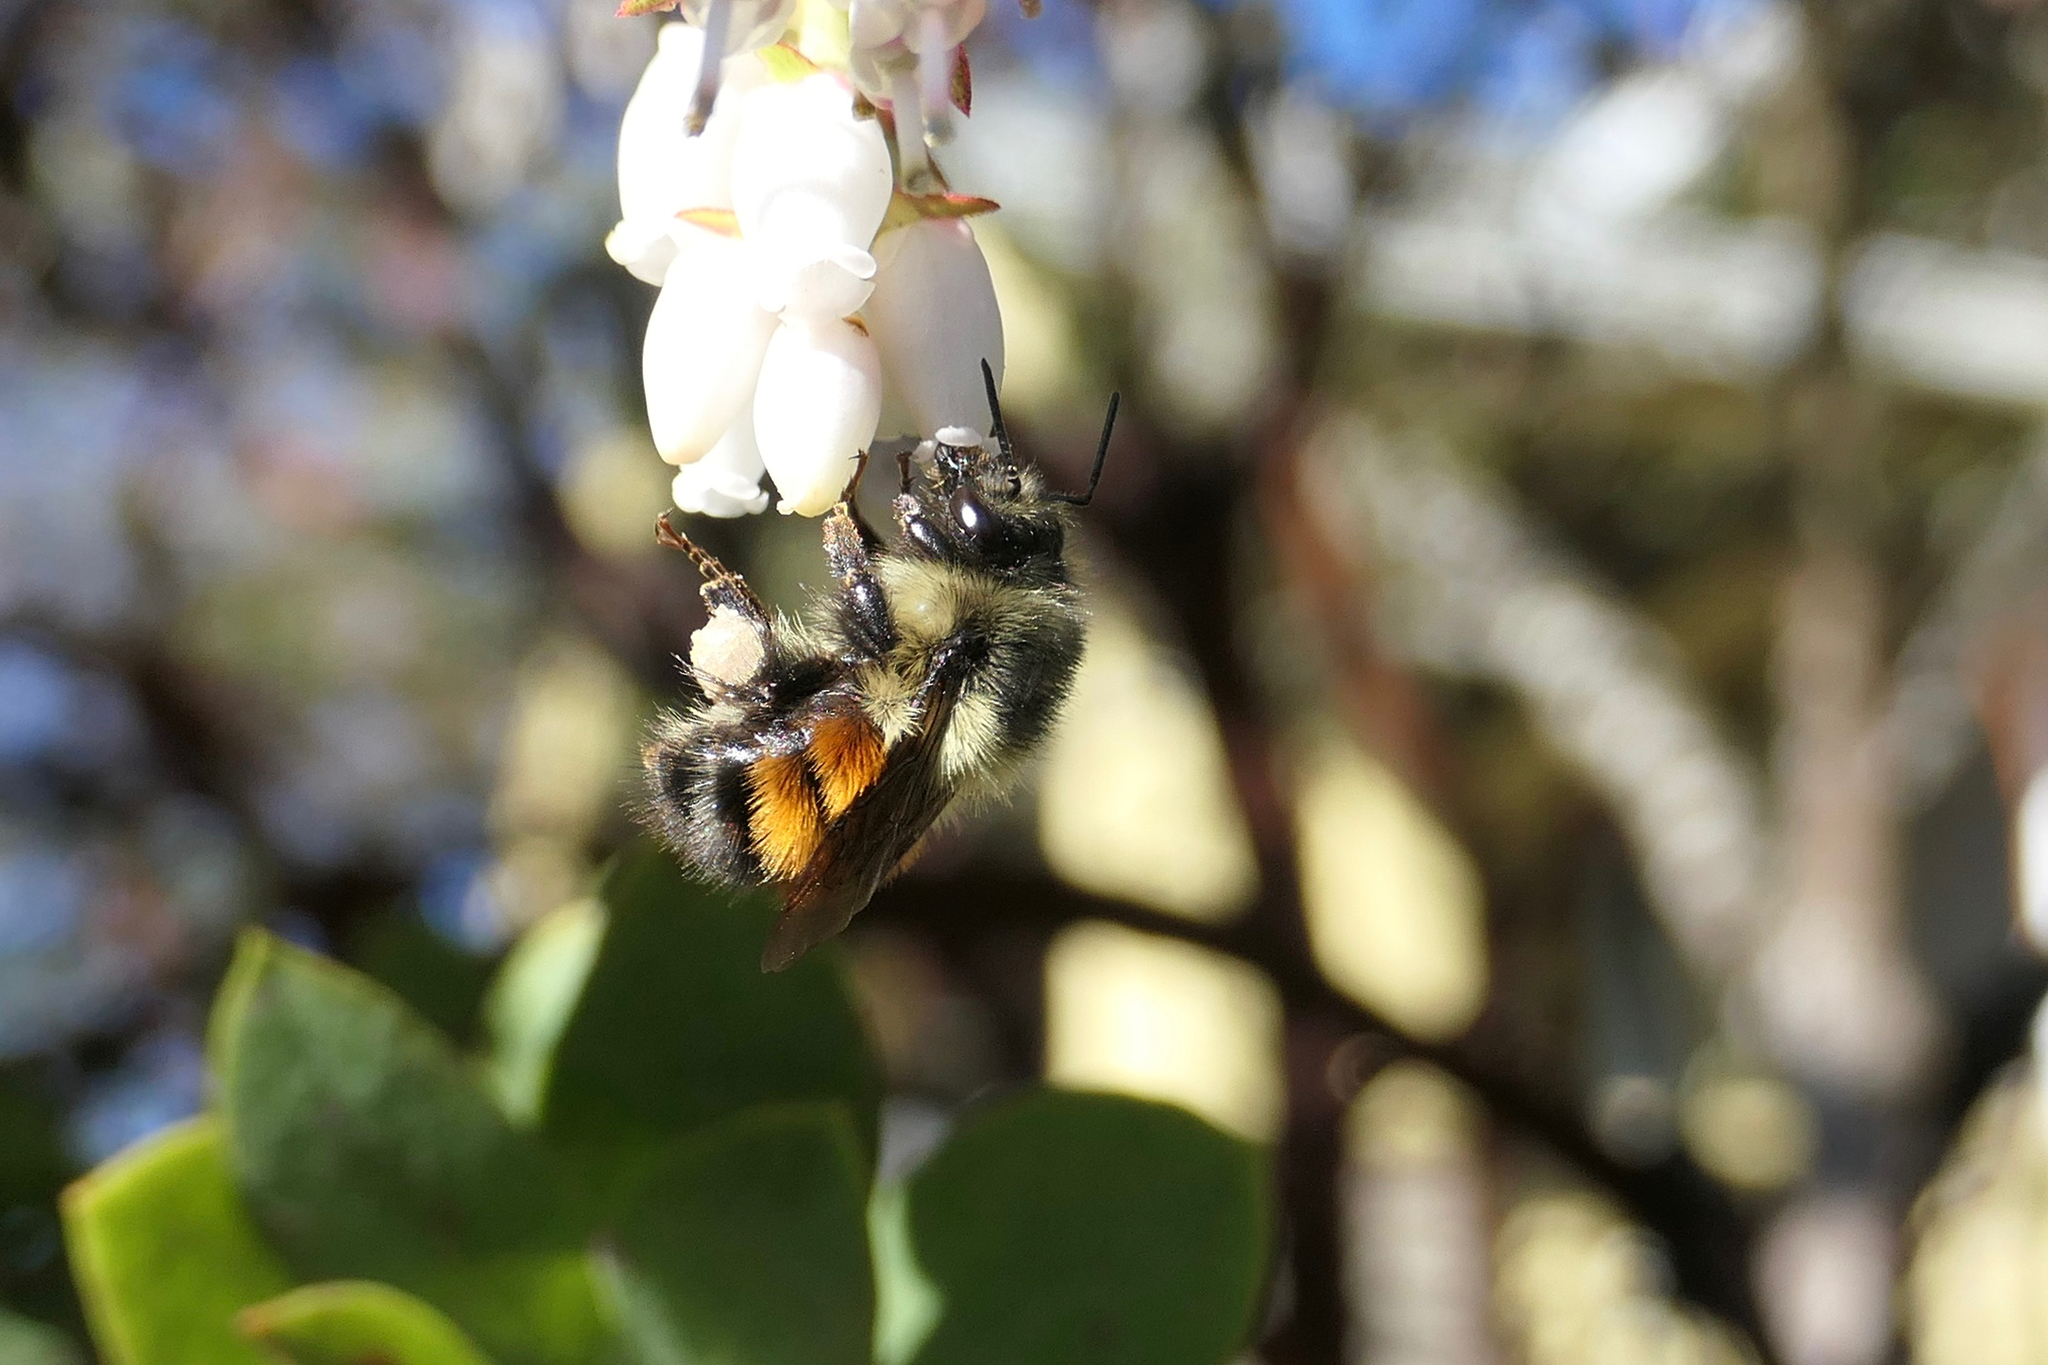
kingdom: Animalia
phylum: Arthropoda
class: Insecta
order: Hymenoptera
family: Apidae
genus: Bombus
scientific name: Bombus melanopygus
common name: Black tail bumble bee
